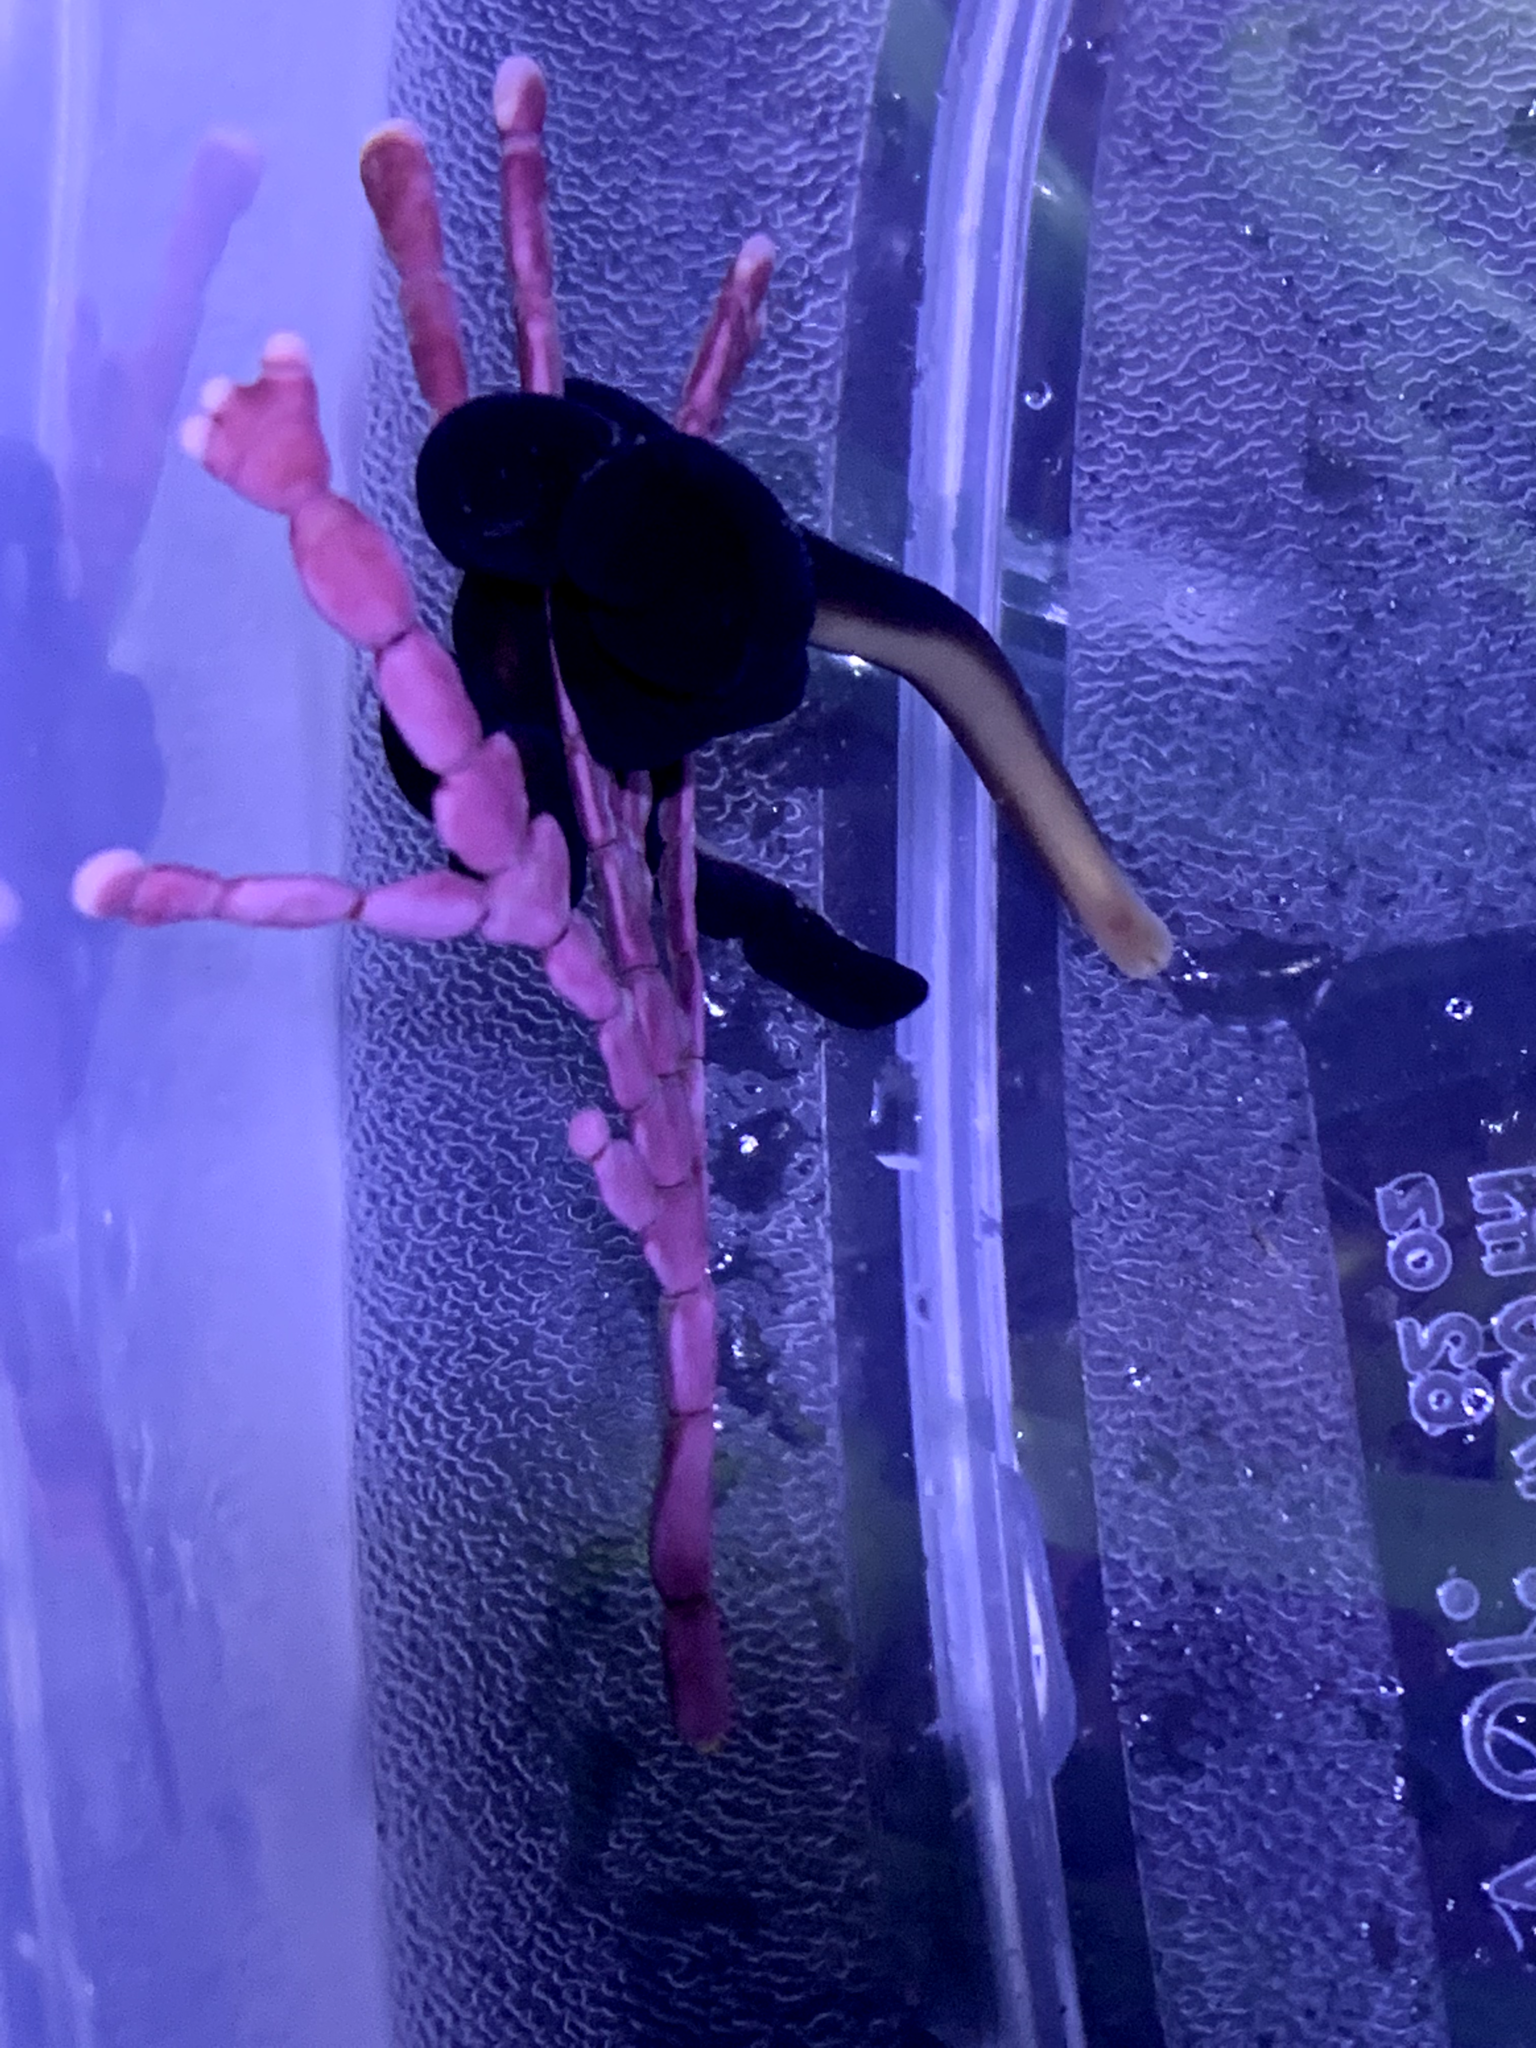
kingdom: Animalia
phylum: Nemertea
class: Hoplonemertea
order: Monostilifera
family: Neesiidae
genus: Paranemertes
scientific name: Paranemertes peregrina
